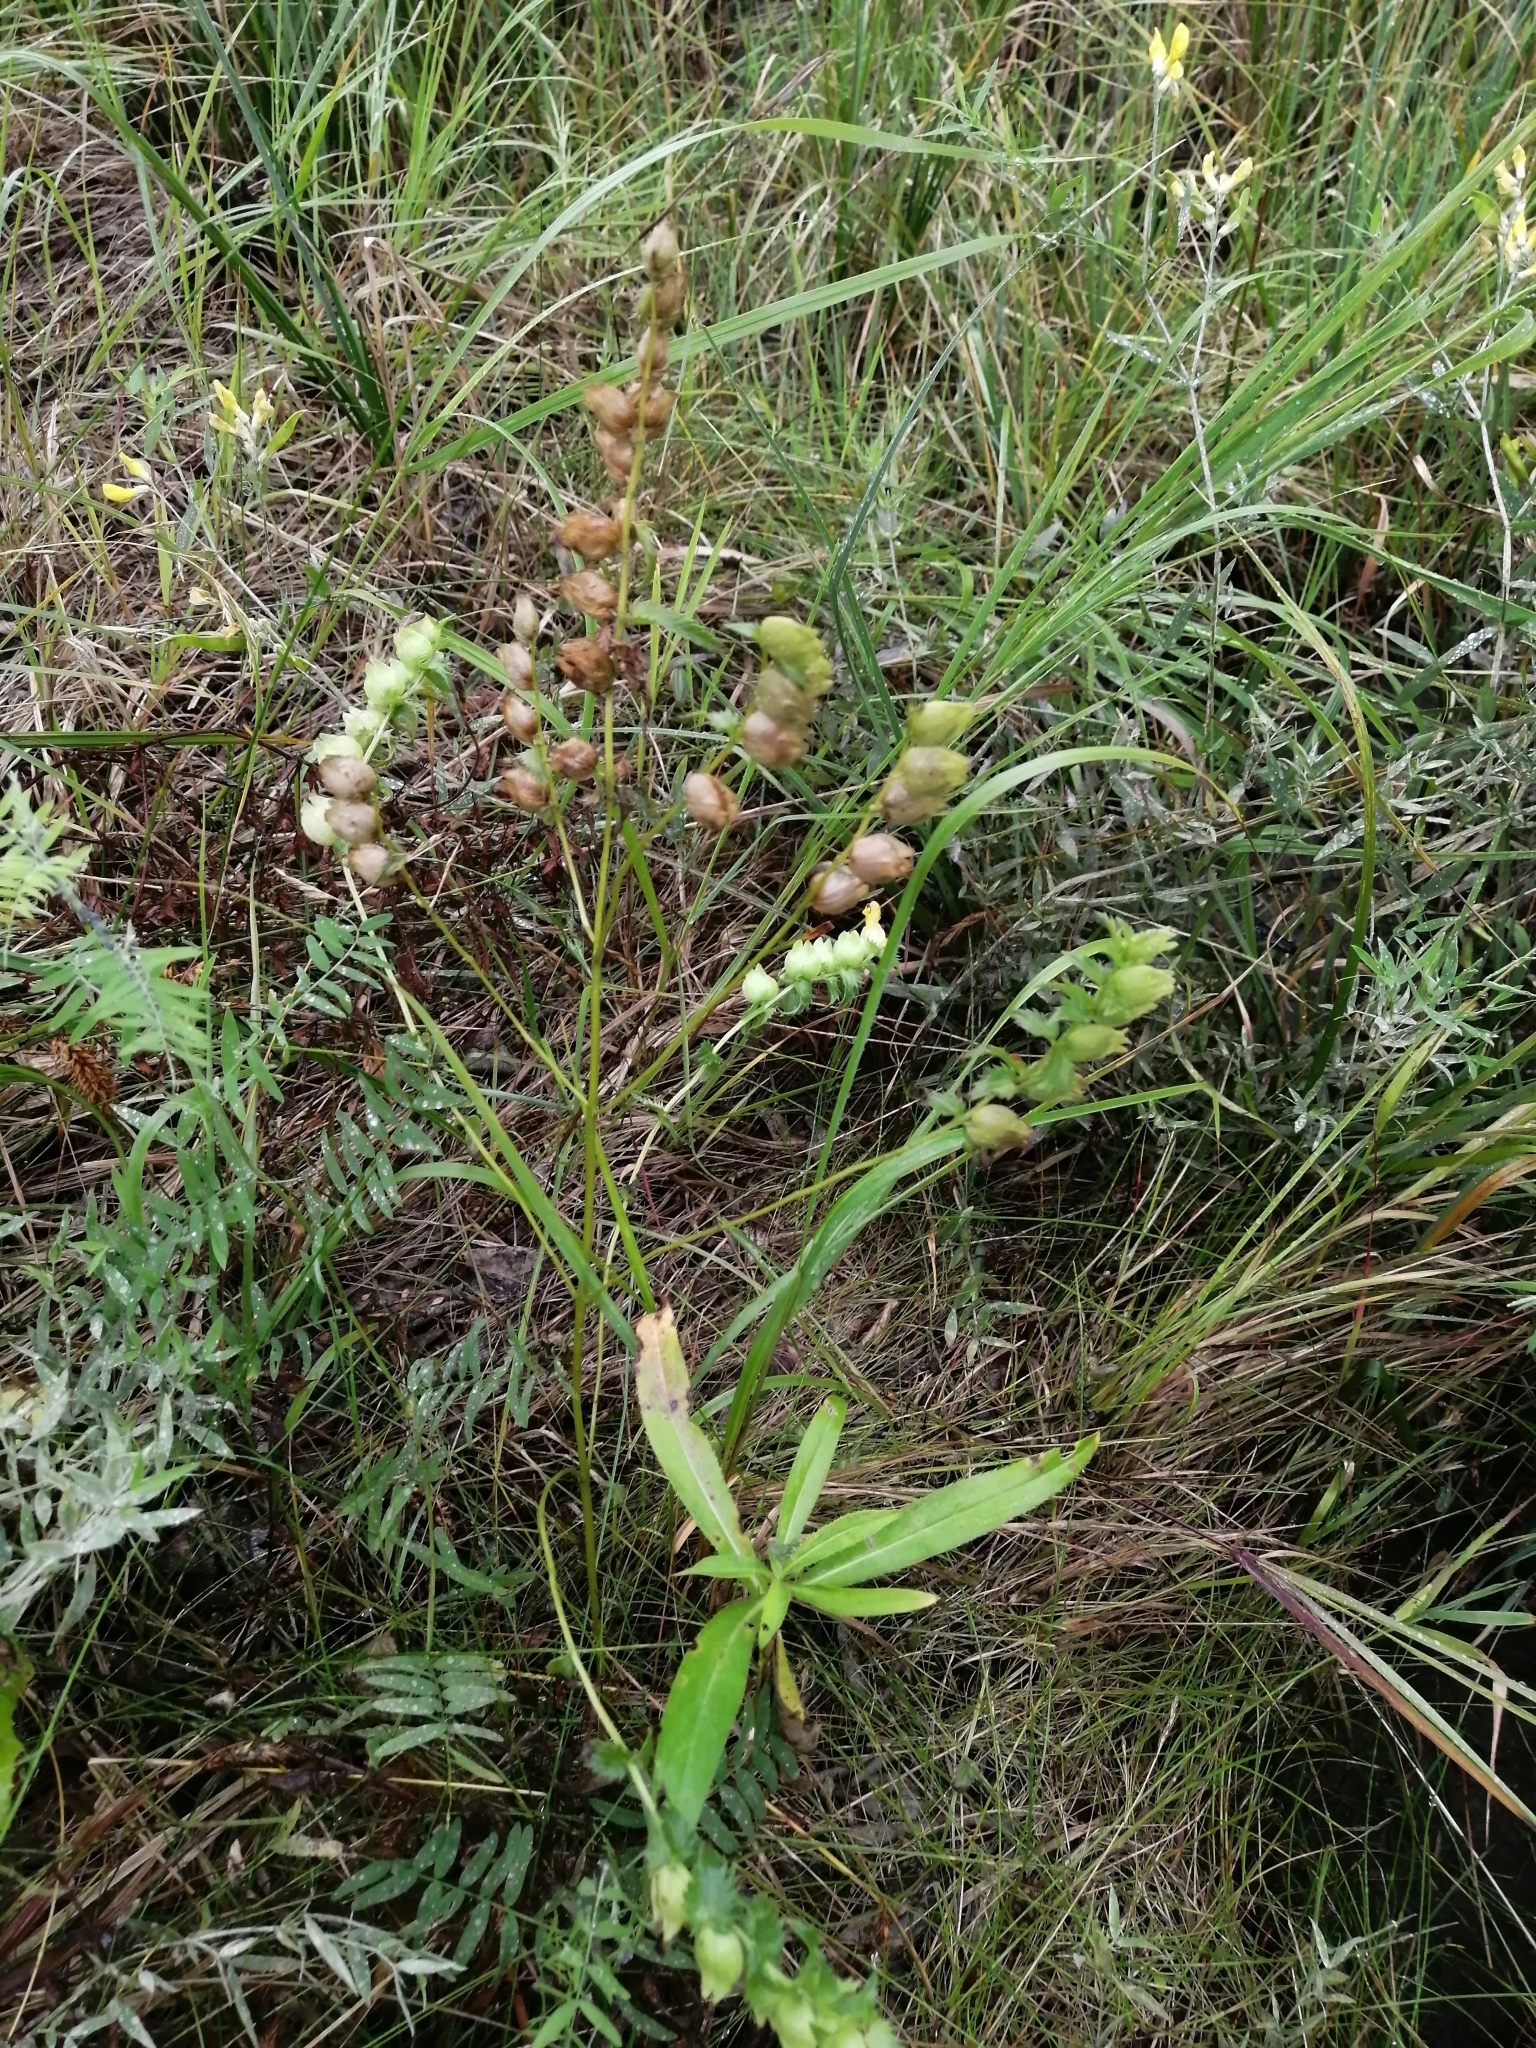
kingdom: Plantae
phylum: Tracheophyta
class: Magnoliopsida
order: Lamiales
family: Orobanchaceae
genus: Rhinanthus
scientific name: Rhinanthus serotinus
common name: Late-flowering yellow rattle
